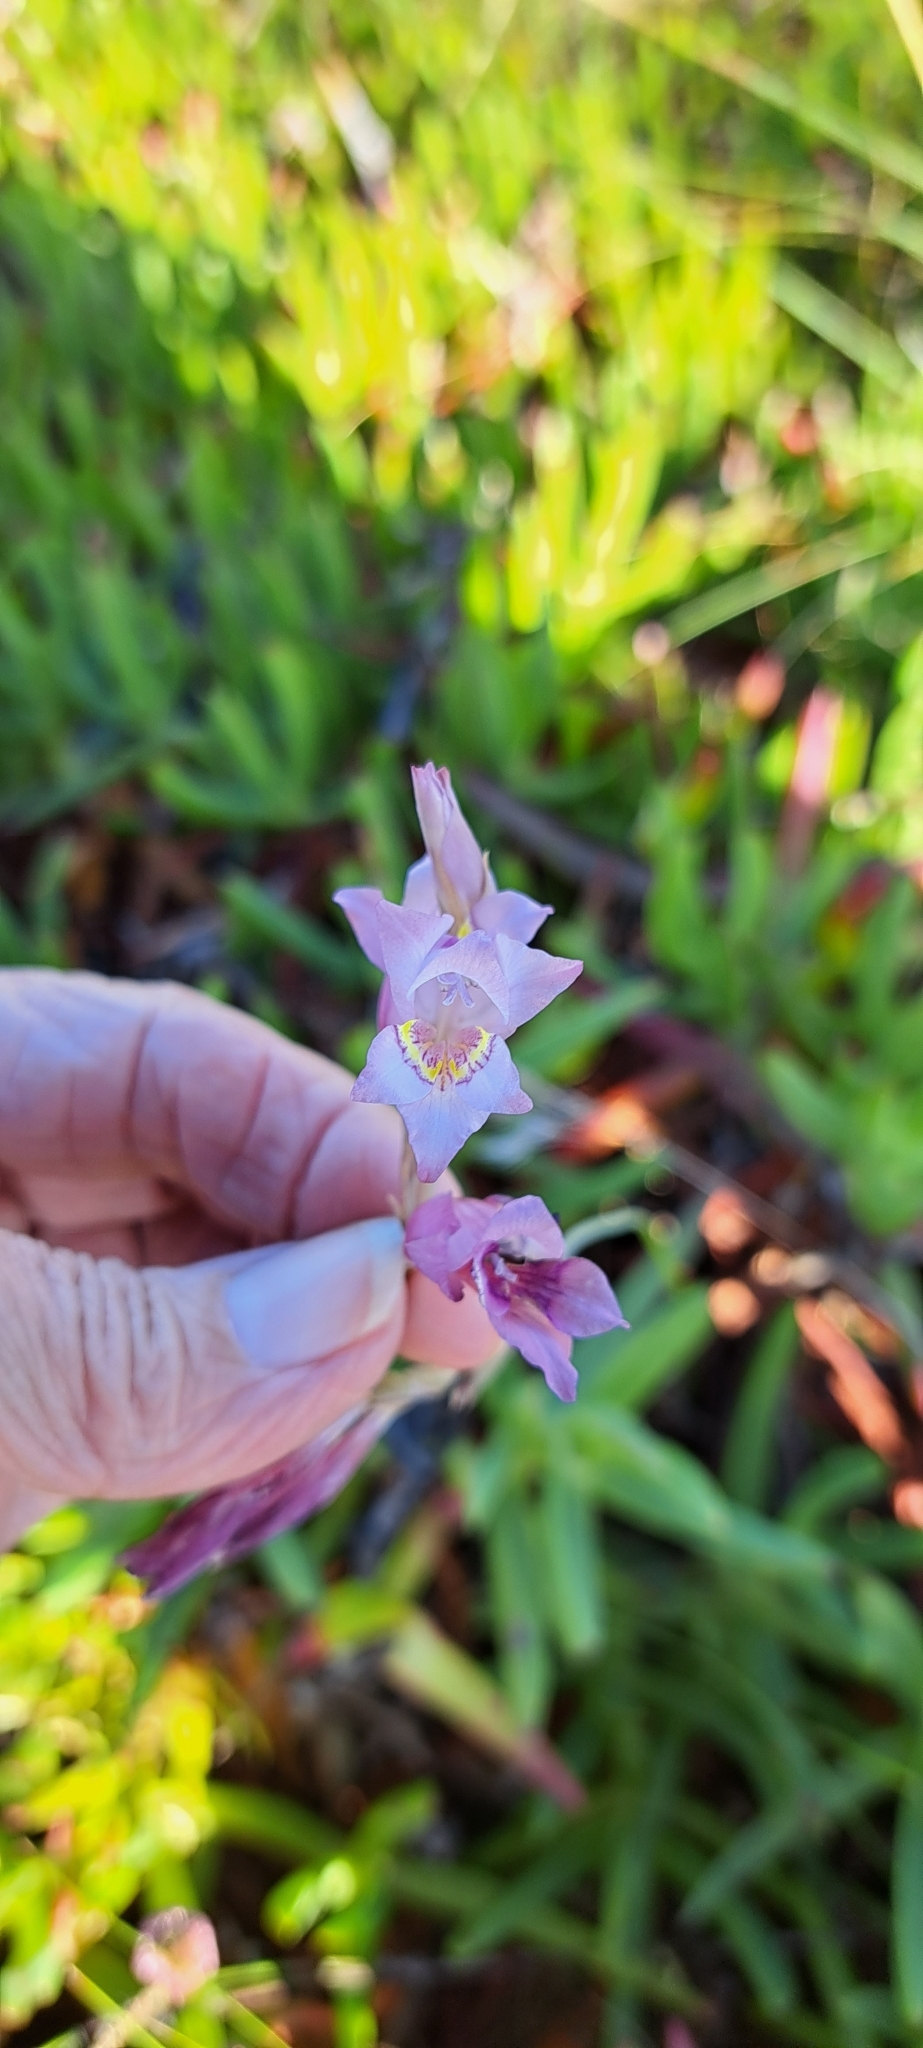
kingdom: Plantae
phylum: Tracheophyta
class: Liliopsida
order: Asparagales
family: Iridaceae
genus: Gladiolus
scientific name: Gladiolus martleyi
